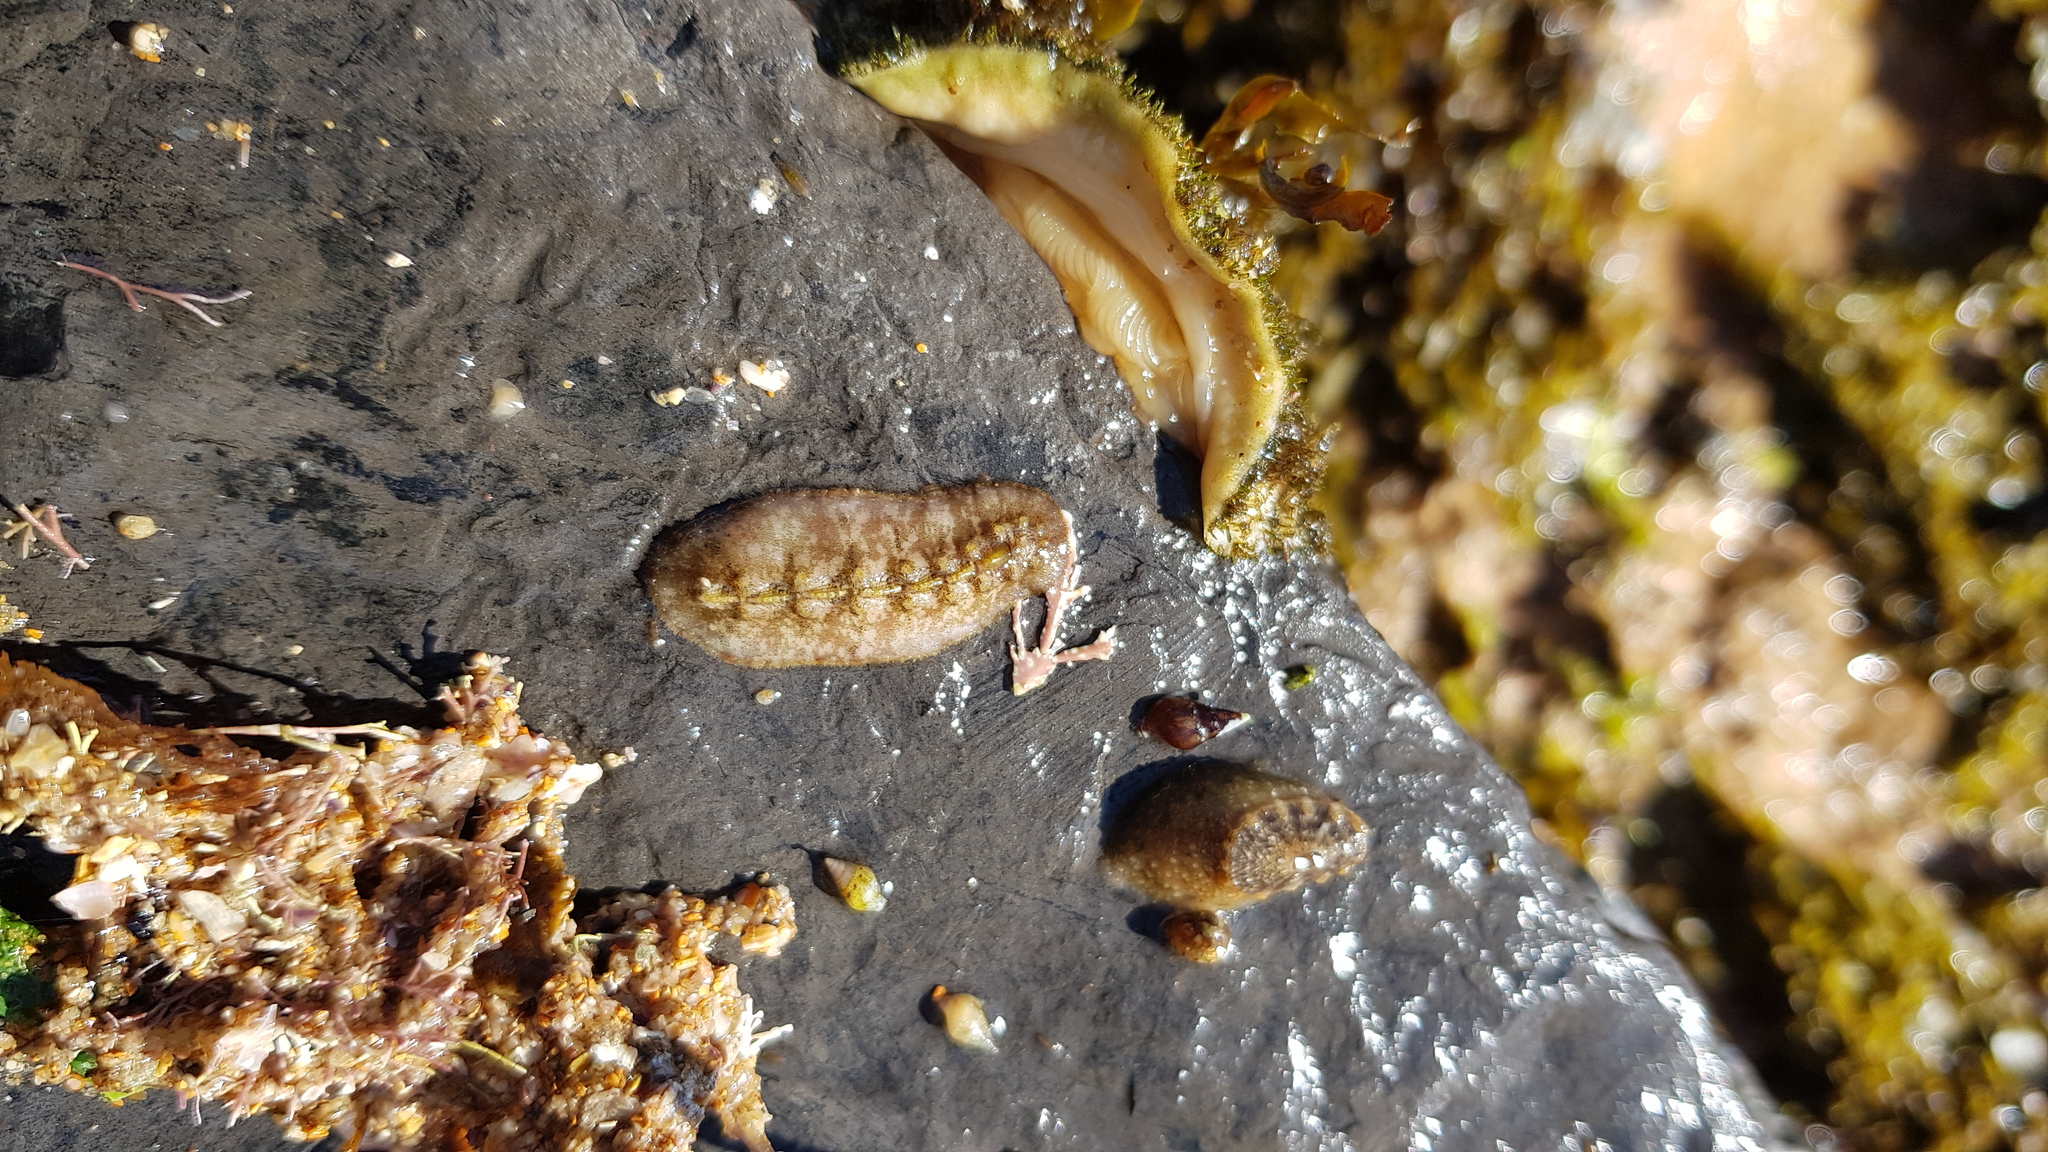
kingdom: Animalia
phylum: Mollusca
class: Gastropoda
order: Lepetellida
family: Fissurellidae
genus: Amblychilepas
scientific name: Amblychilepas nigrita
